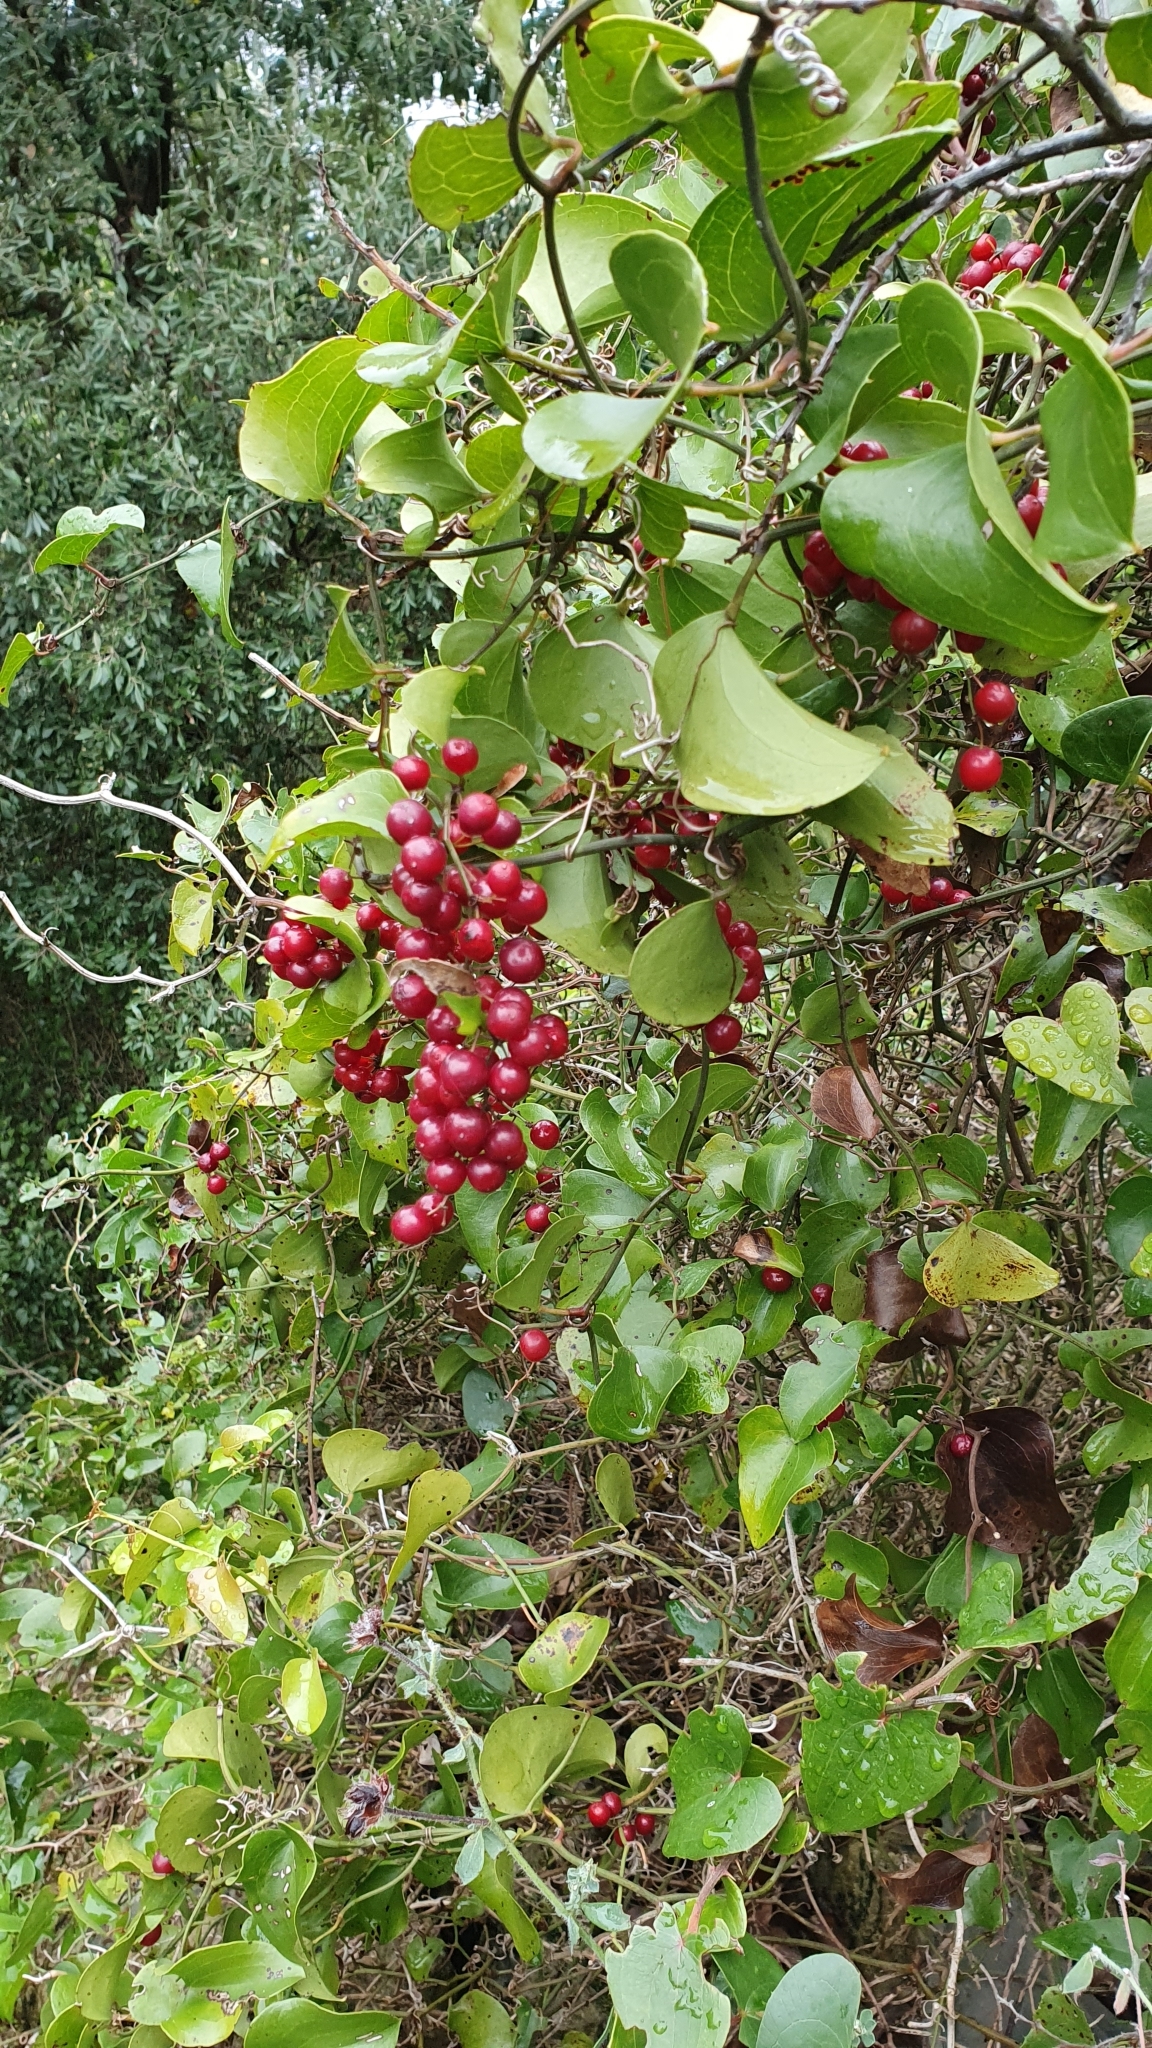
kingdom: Plantae
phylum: Tracheophyta
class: Liliopsida
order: Liliales
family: Smilacaceae
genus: Smilax
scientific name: Smilax aspera
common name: Common smilax
